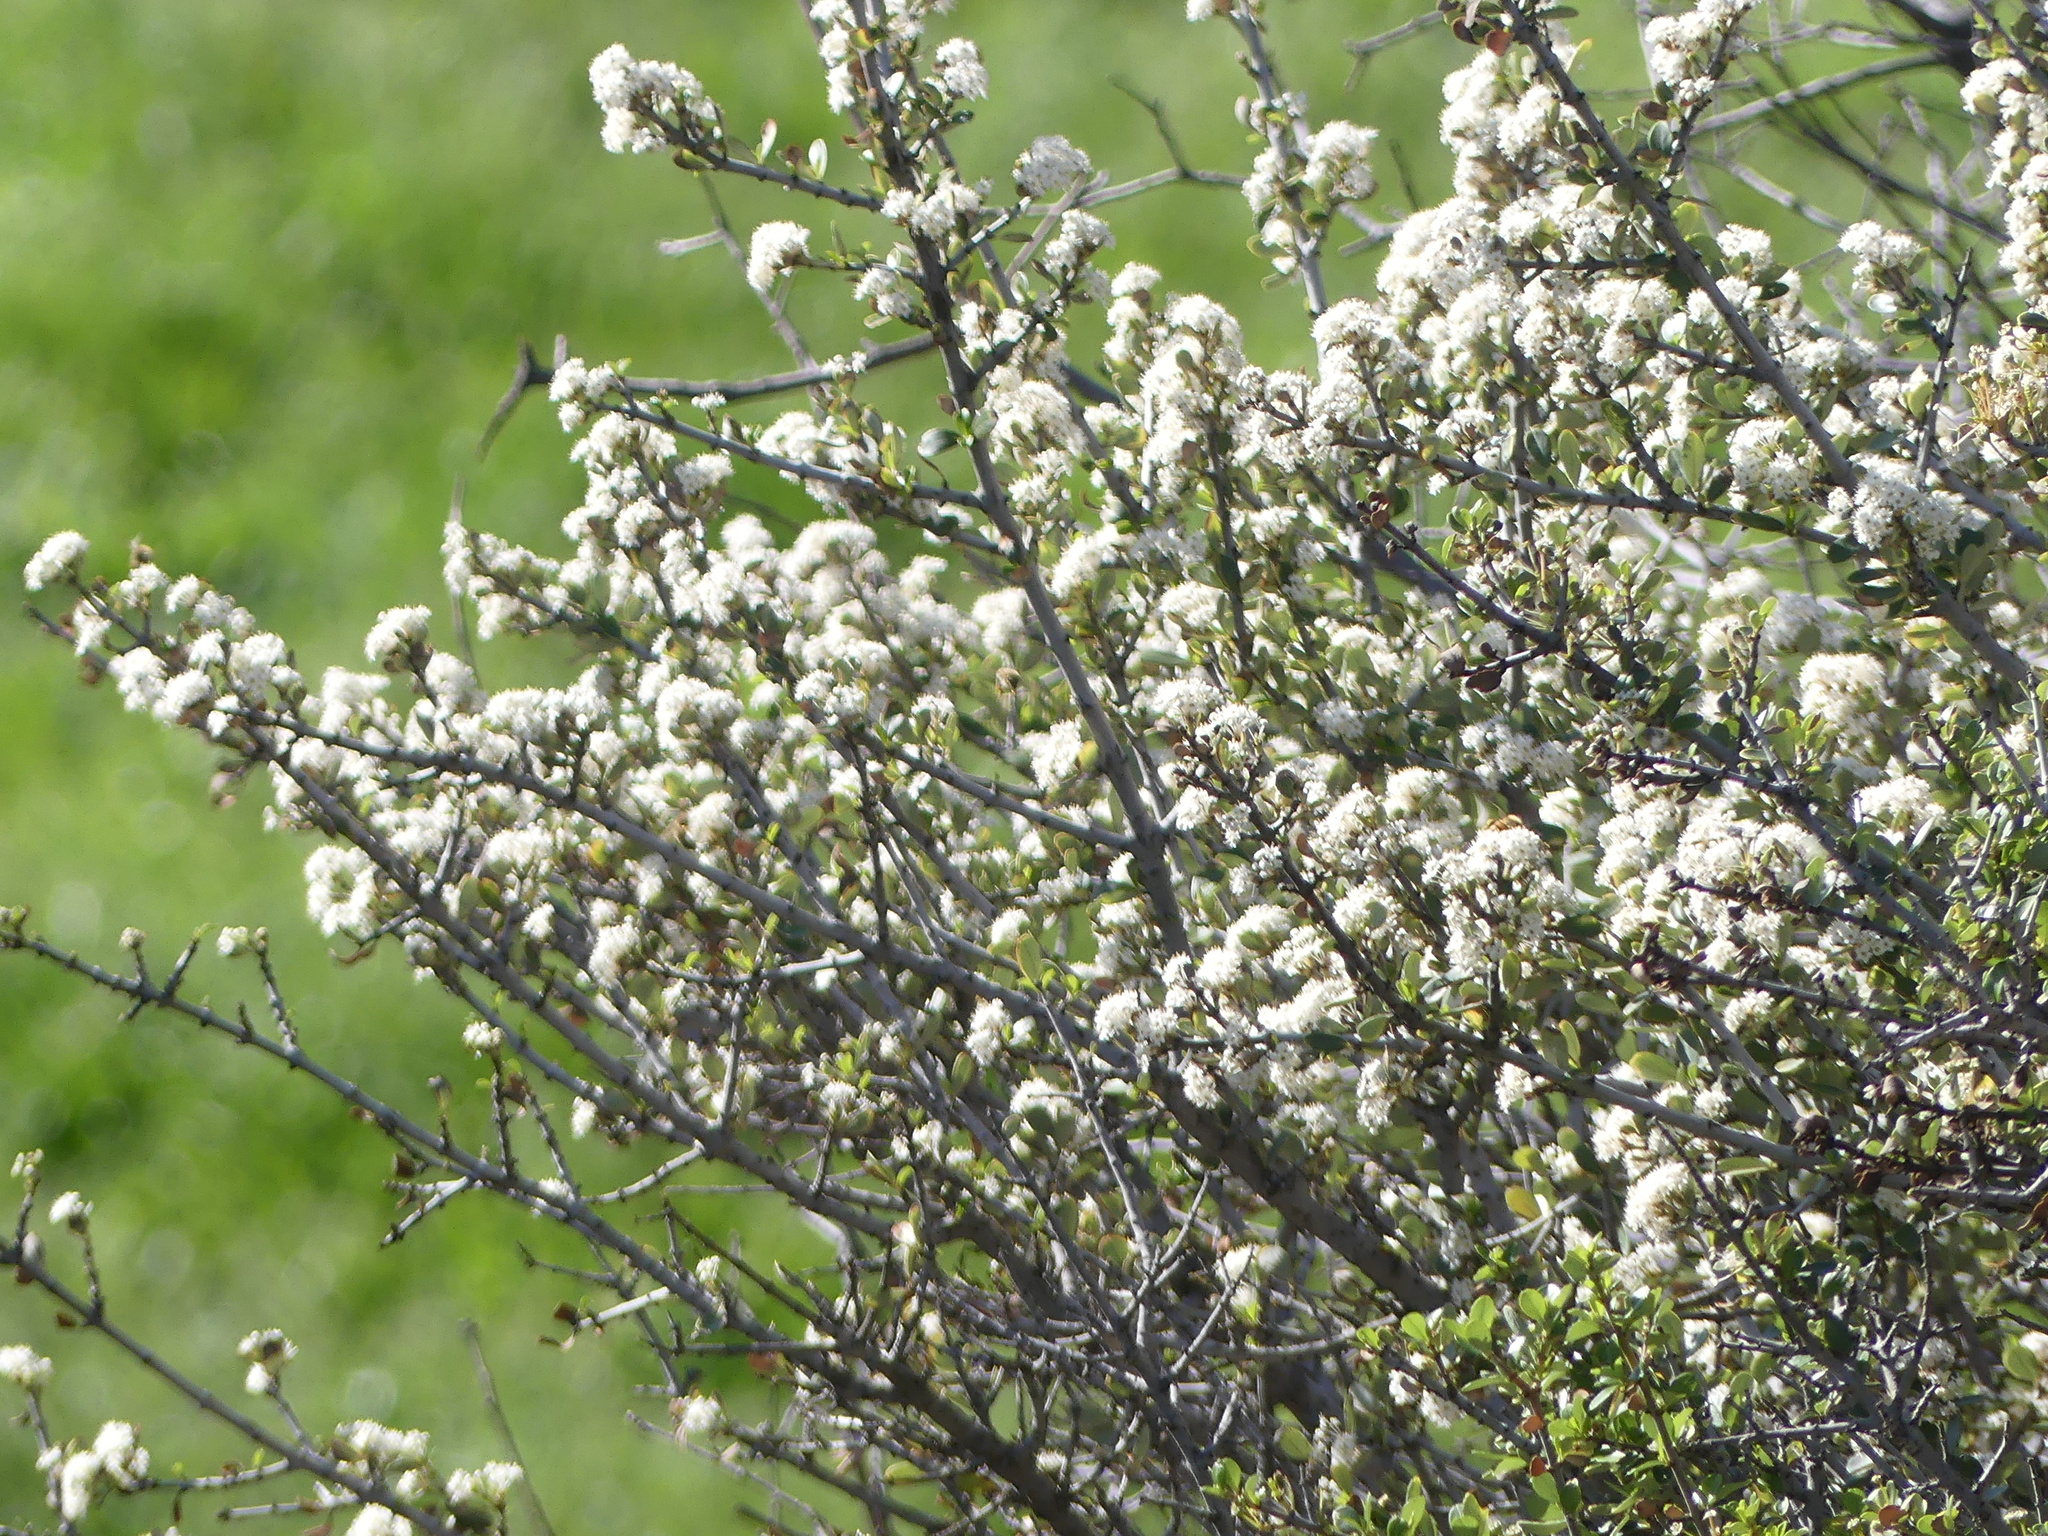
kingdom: Plantae
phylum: Tracheophyta
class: Magnoliopsida
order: Rosales
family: Rhamnaceae
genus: Ceanothus
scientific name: Ceanothus cuneatus
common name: Cuneate ceanothus
